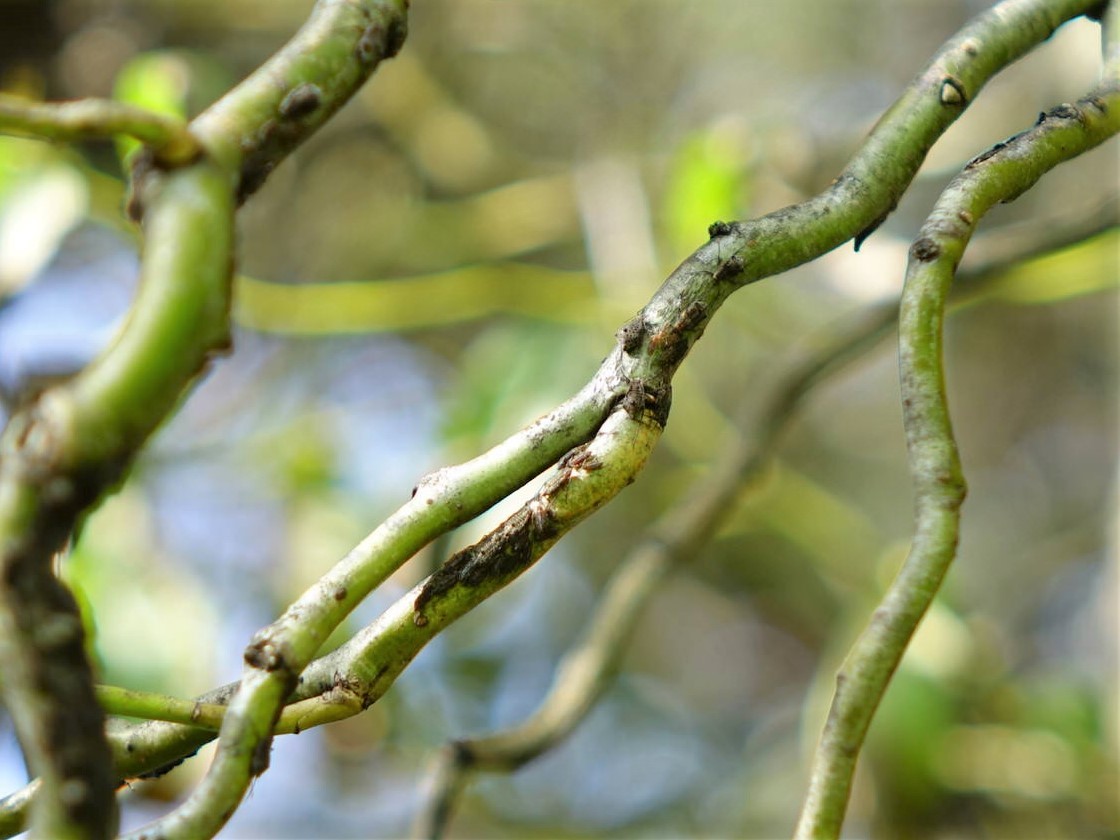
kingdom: Animalia
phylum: Arthropoda
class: Insecta
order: Hemiptera
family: Aphididae
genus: Tuberolachnus
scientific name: Tuberolachnus salignus
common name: Giant willow aphid
